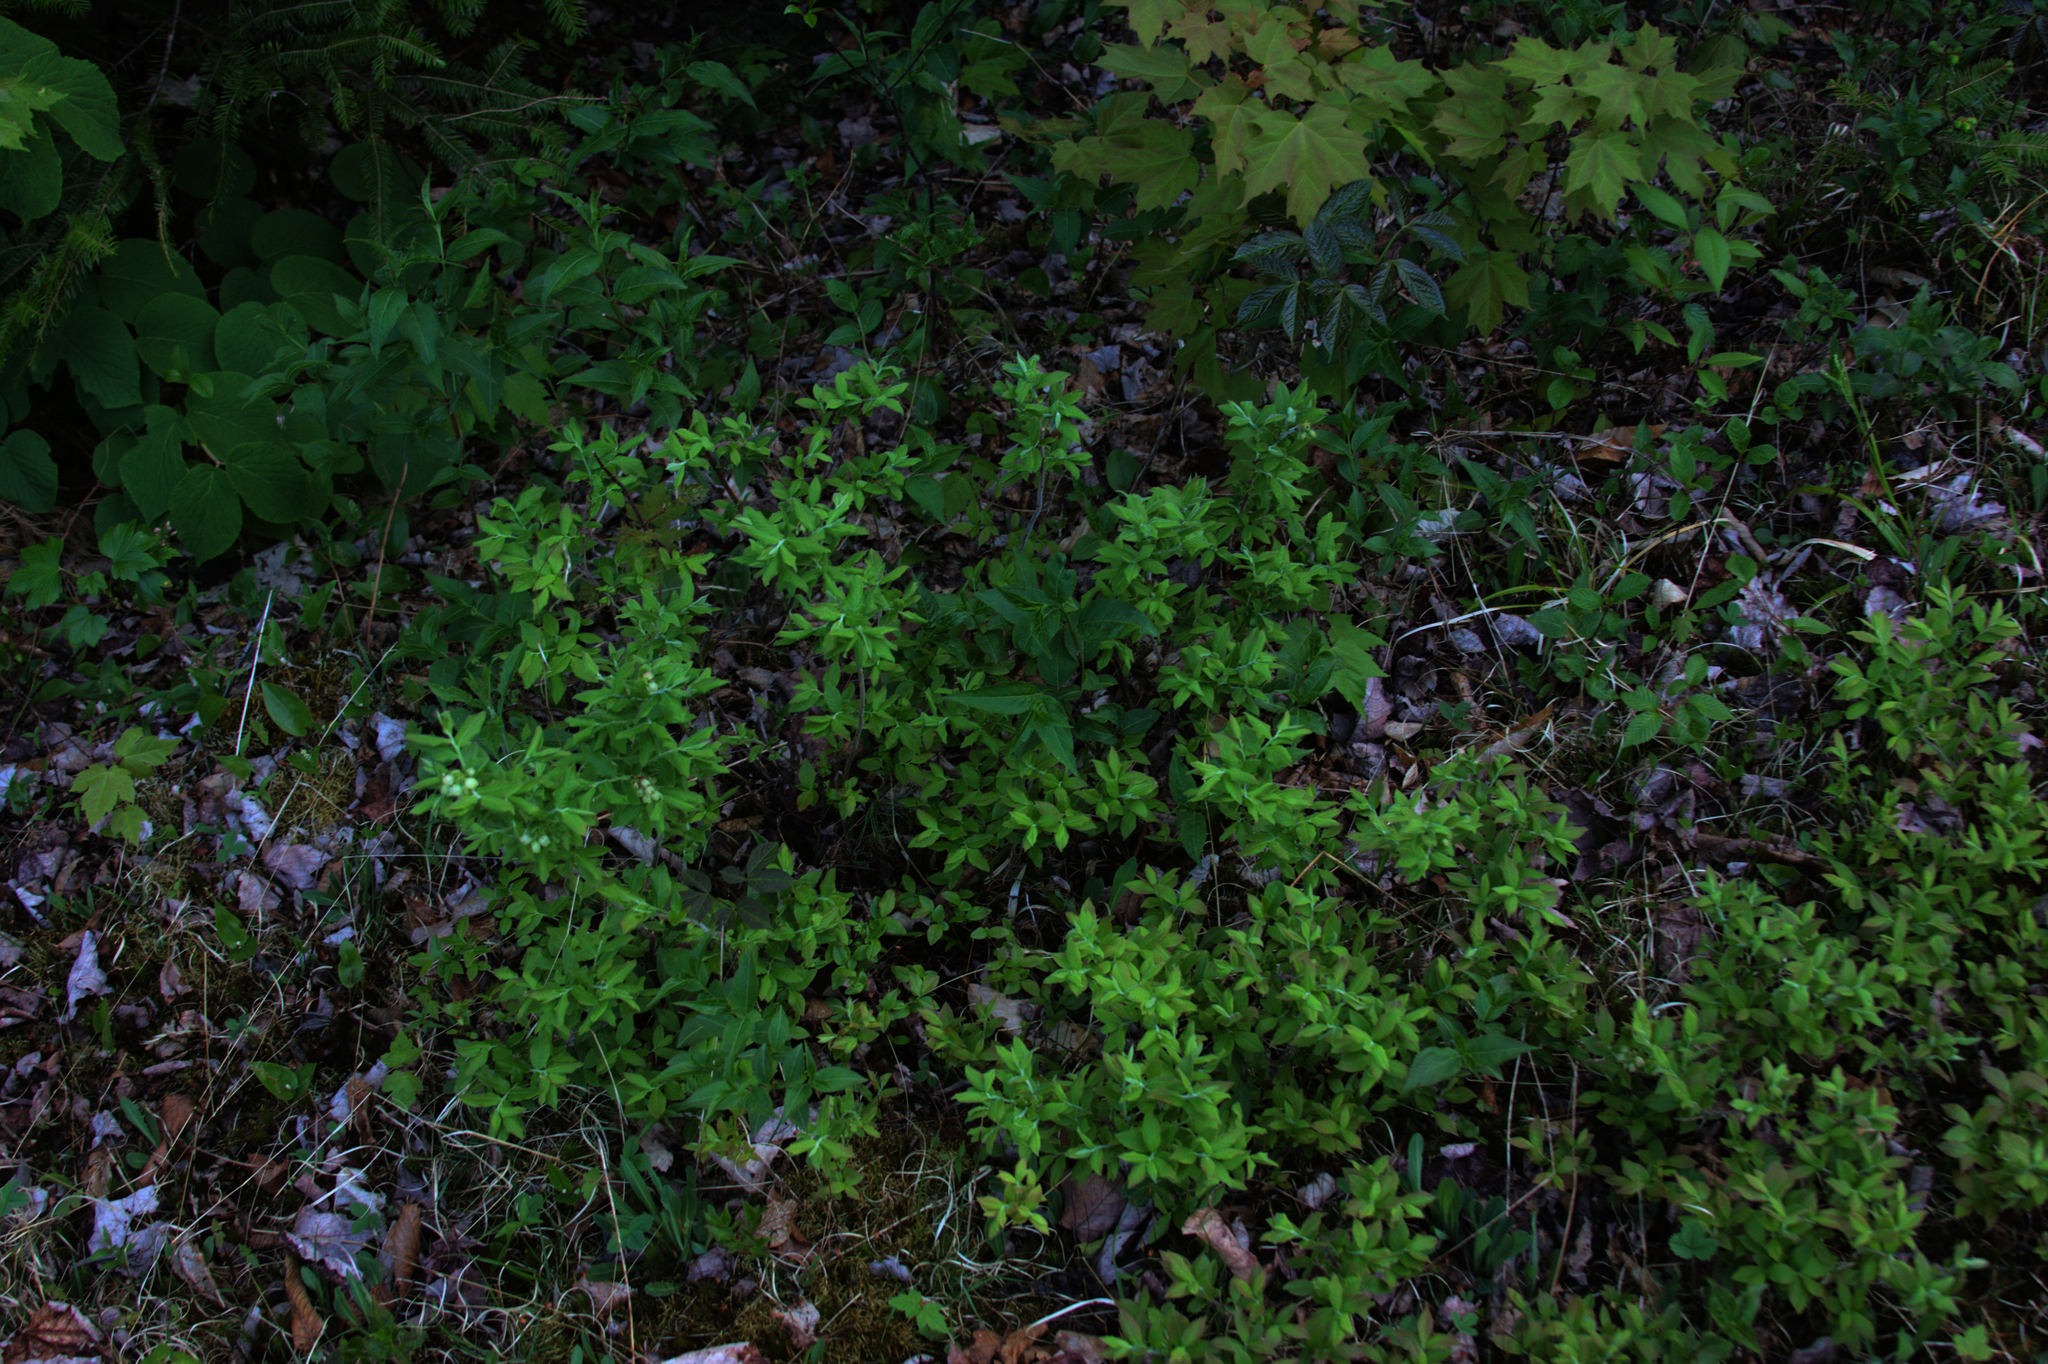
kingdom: Plantae
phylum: Tracheophyta
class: Magnoliopsida
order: Dipsacales
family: Viburnaceae
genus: Viburnum
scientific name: Viburnum lantanoides
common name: Hobblebush
